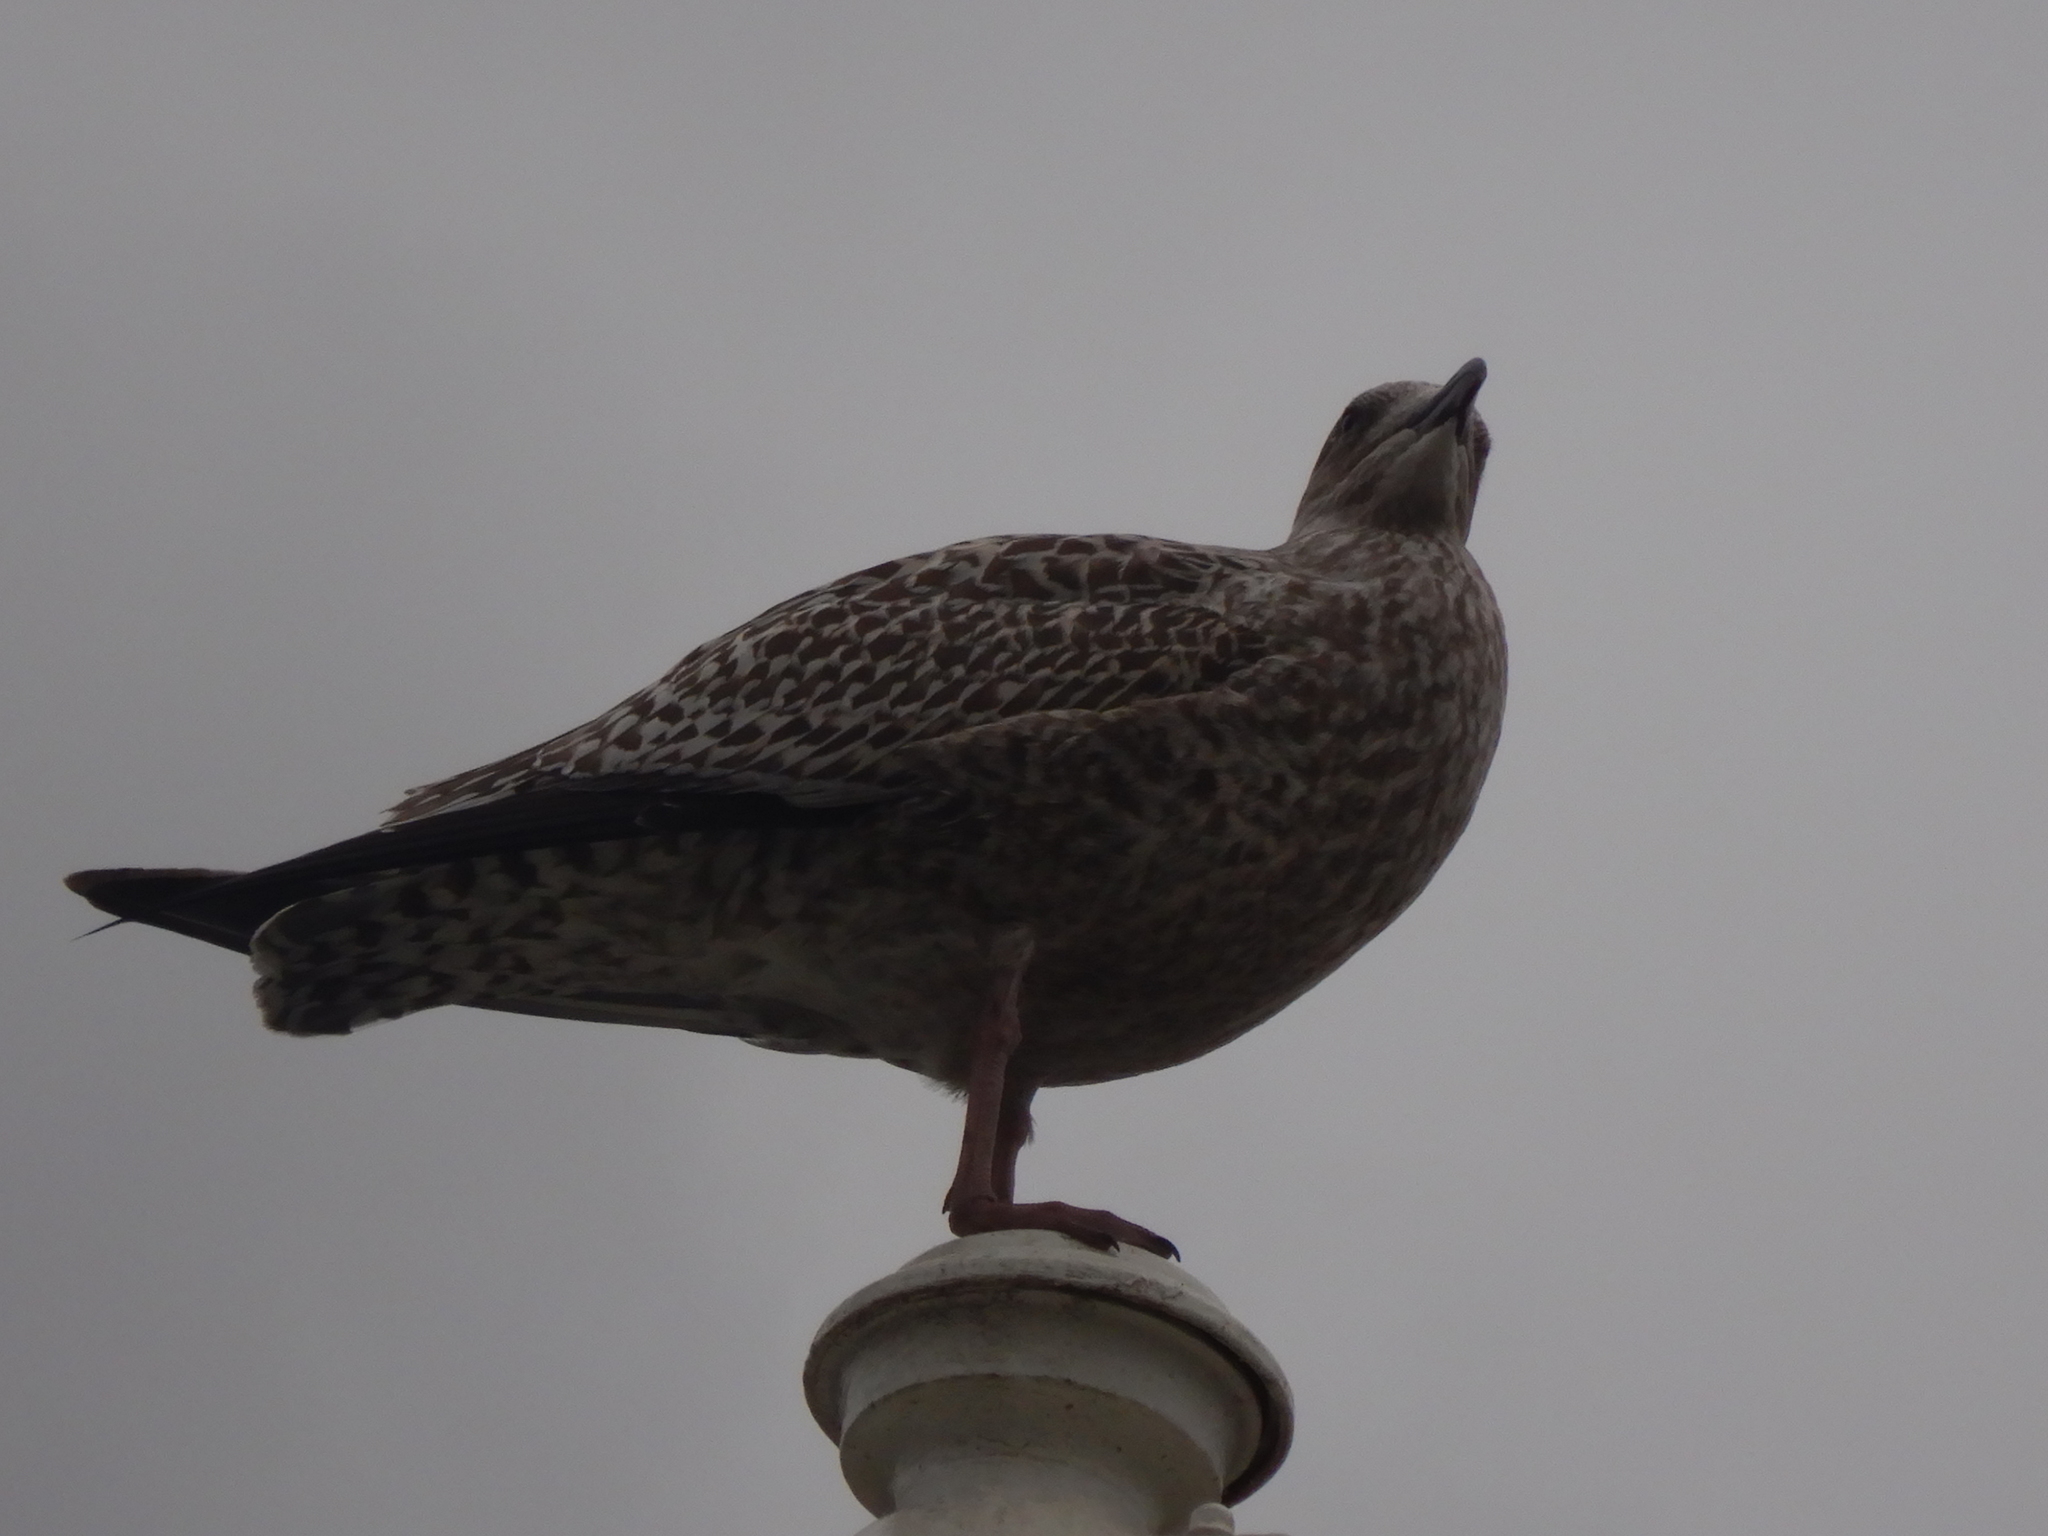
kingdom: Animalia
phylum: Chordata
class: Aves
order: Charadriiformes
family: Laridae
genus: Larus
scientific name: Larus argentatus
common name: Herring gull
